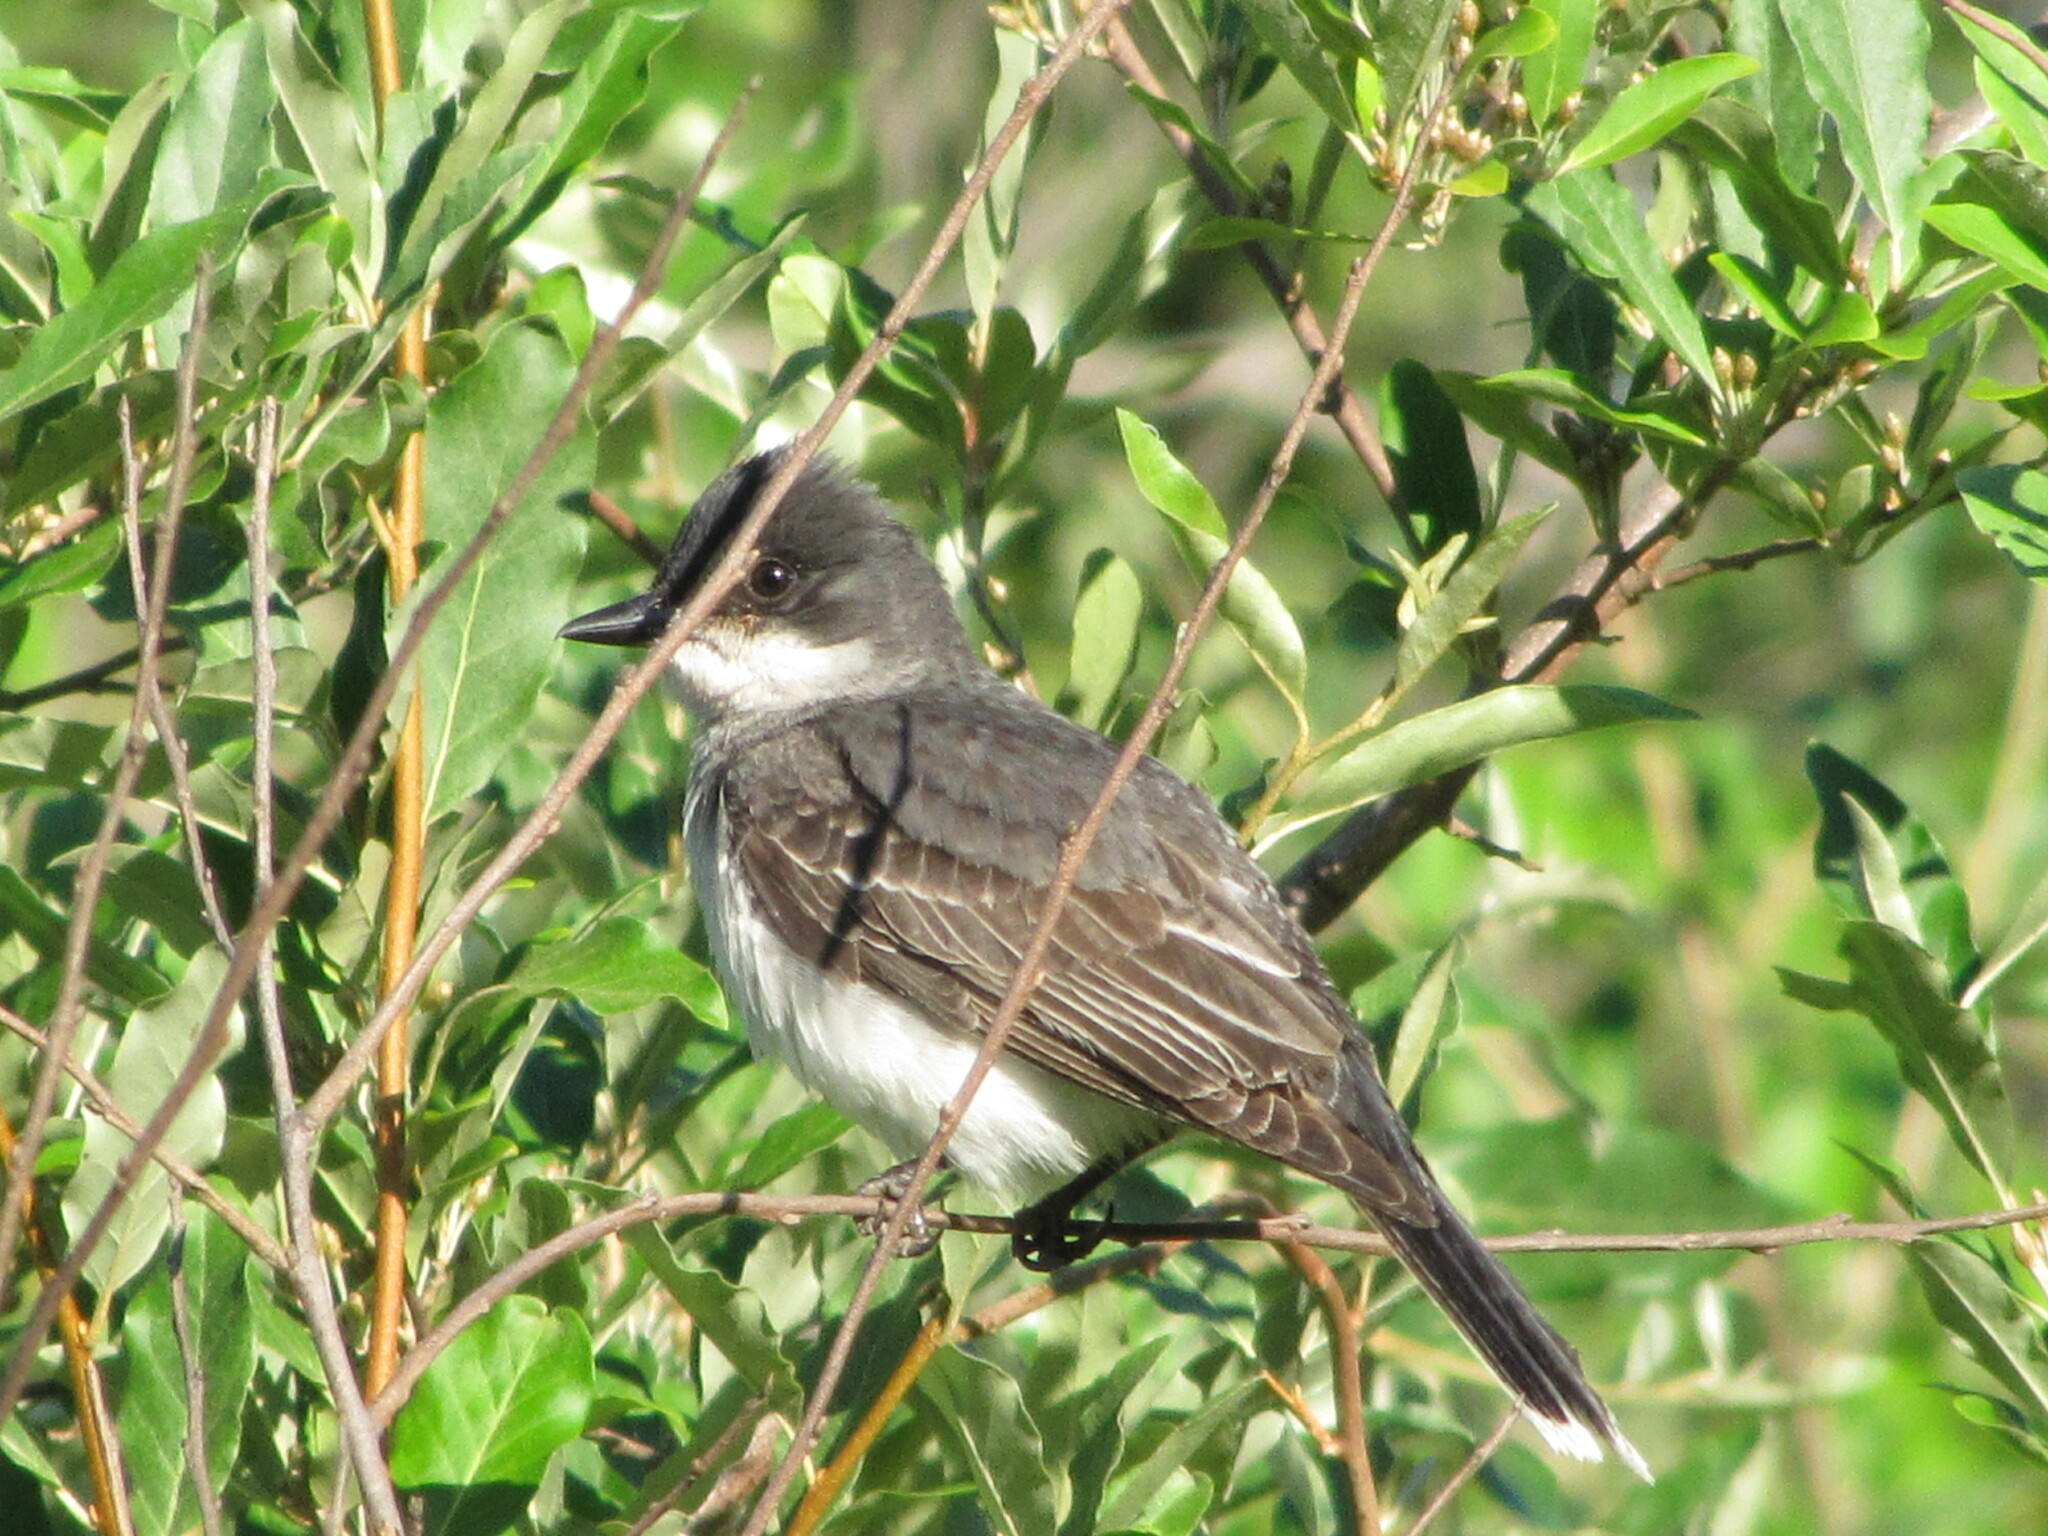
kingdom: Animalia
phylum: Chordata
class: Aves
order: Passeriformes
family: Tyrannidae
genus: Tyrannus
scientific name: Tyrannus tyrannus
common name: Eastern kingbird
